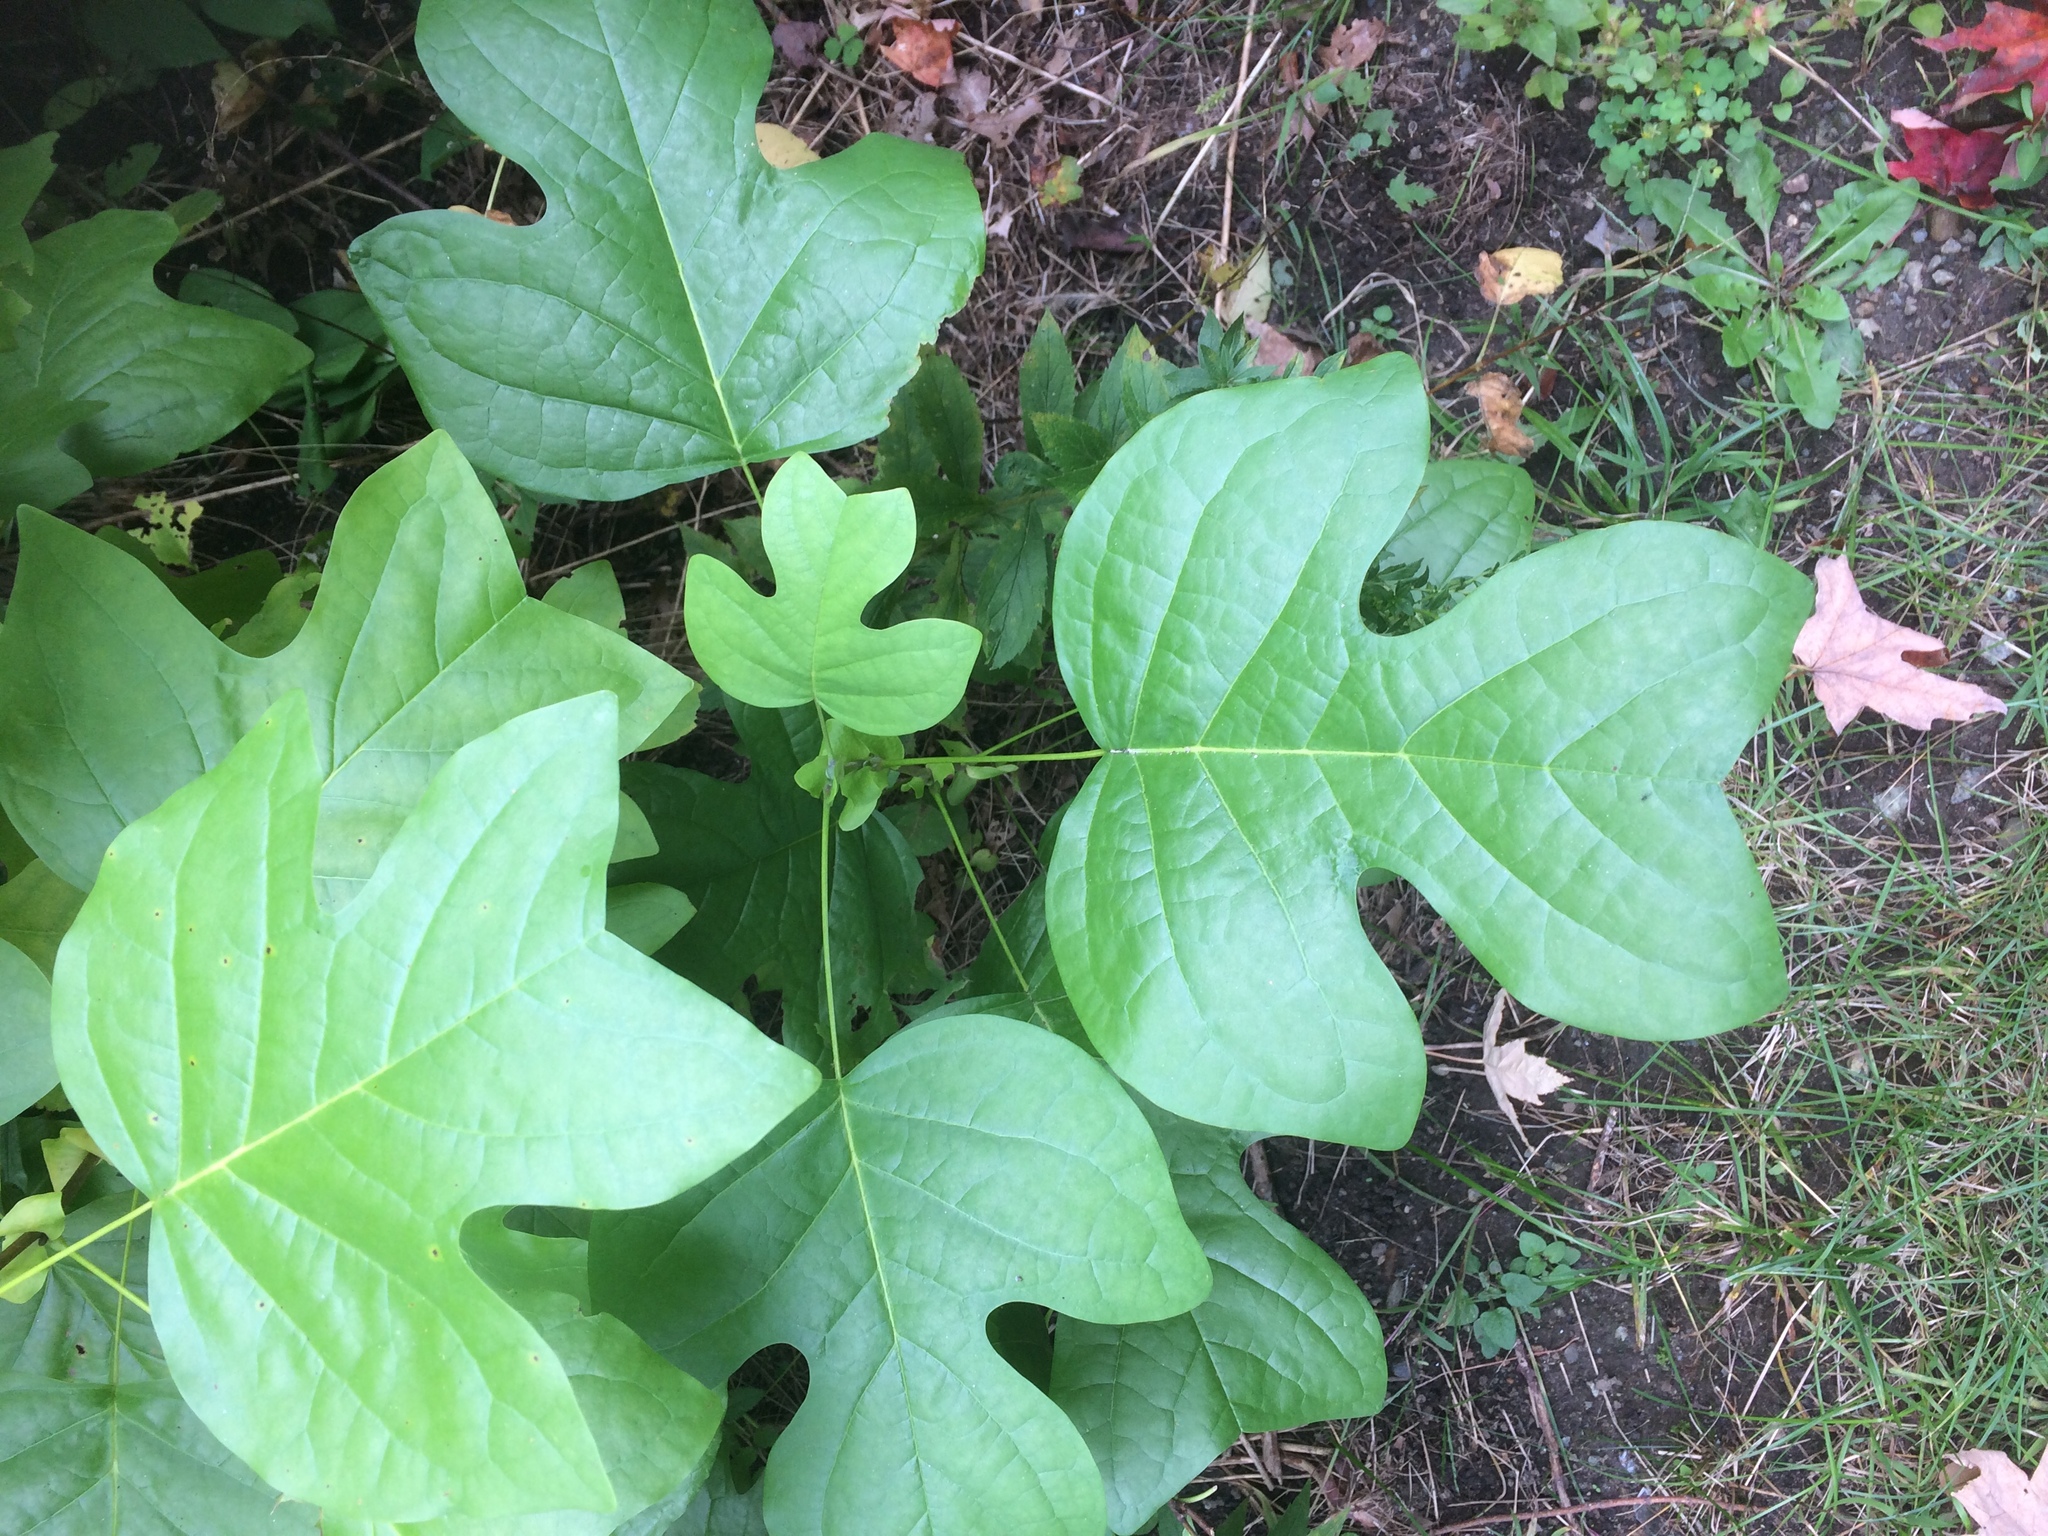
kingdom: Plantae
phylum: Tracheophyta
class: Magnoliopsida
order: Magnoliales
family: Magnoliaceae
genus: Liriodendron
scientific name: Liriodendron tulipifera
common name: Tulip tree
